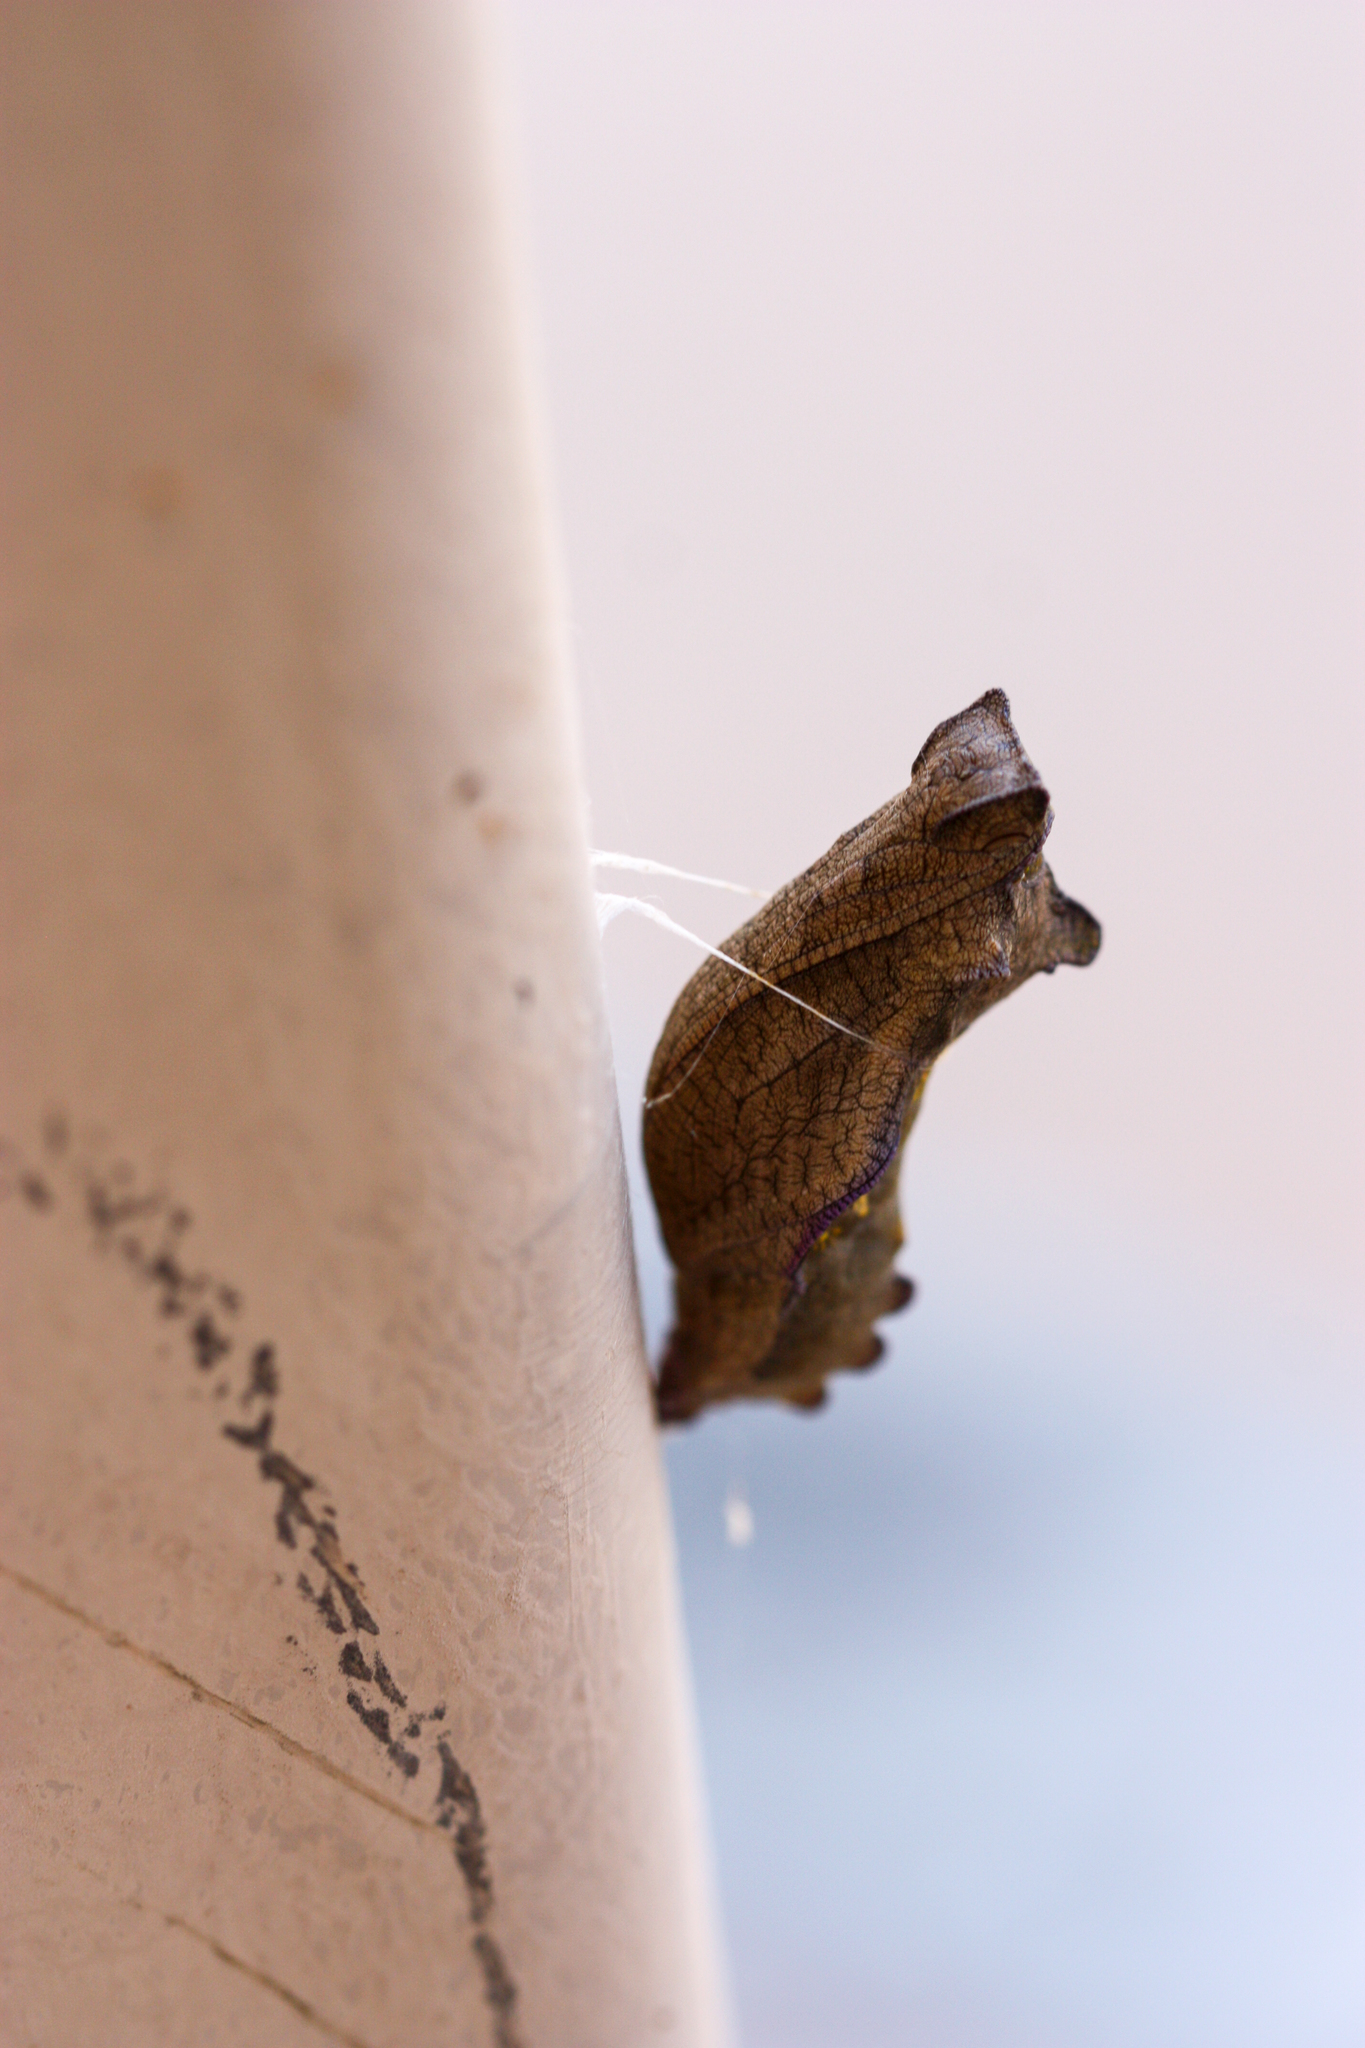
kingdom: Animalia
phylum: Arthropoda
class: Insecta
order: Lepidoptera
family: Papilionidae
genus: Battus
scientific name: Battus philenor
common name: Pipevine swallowtail
